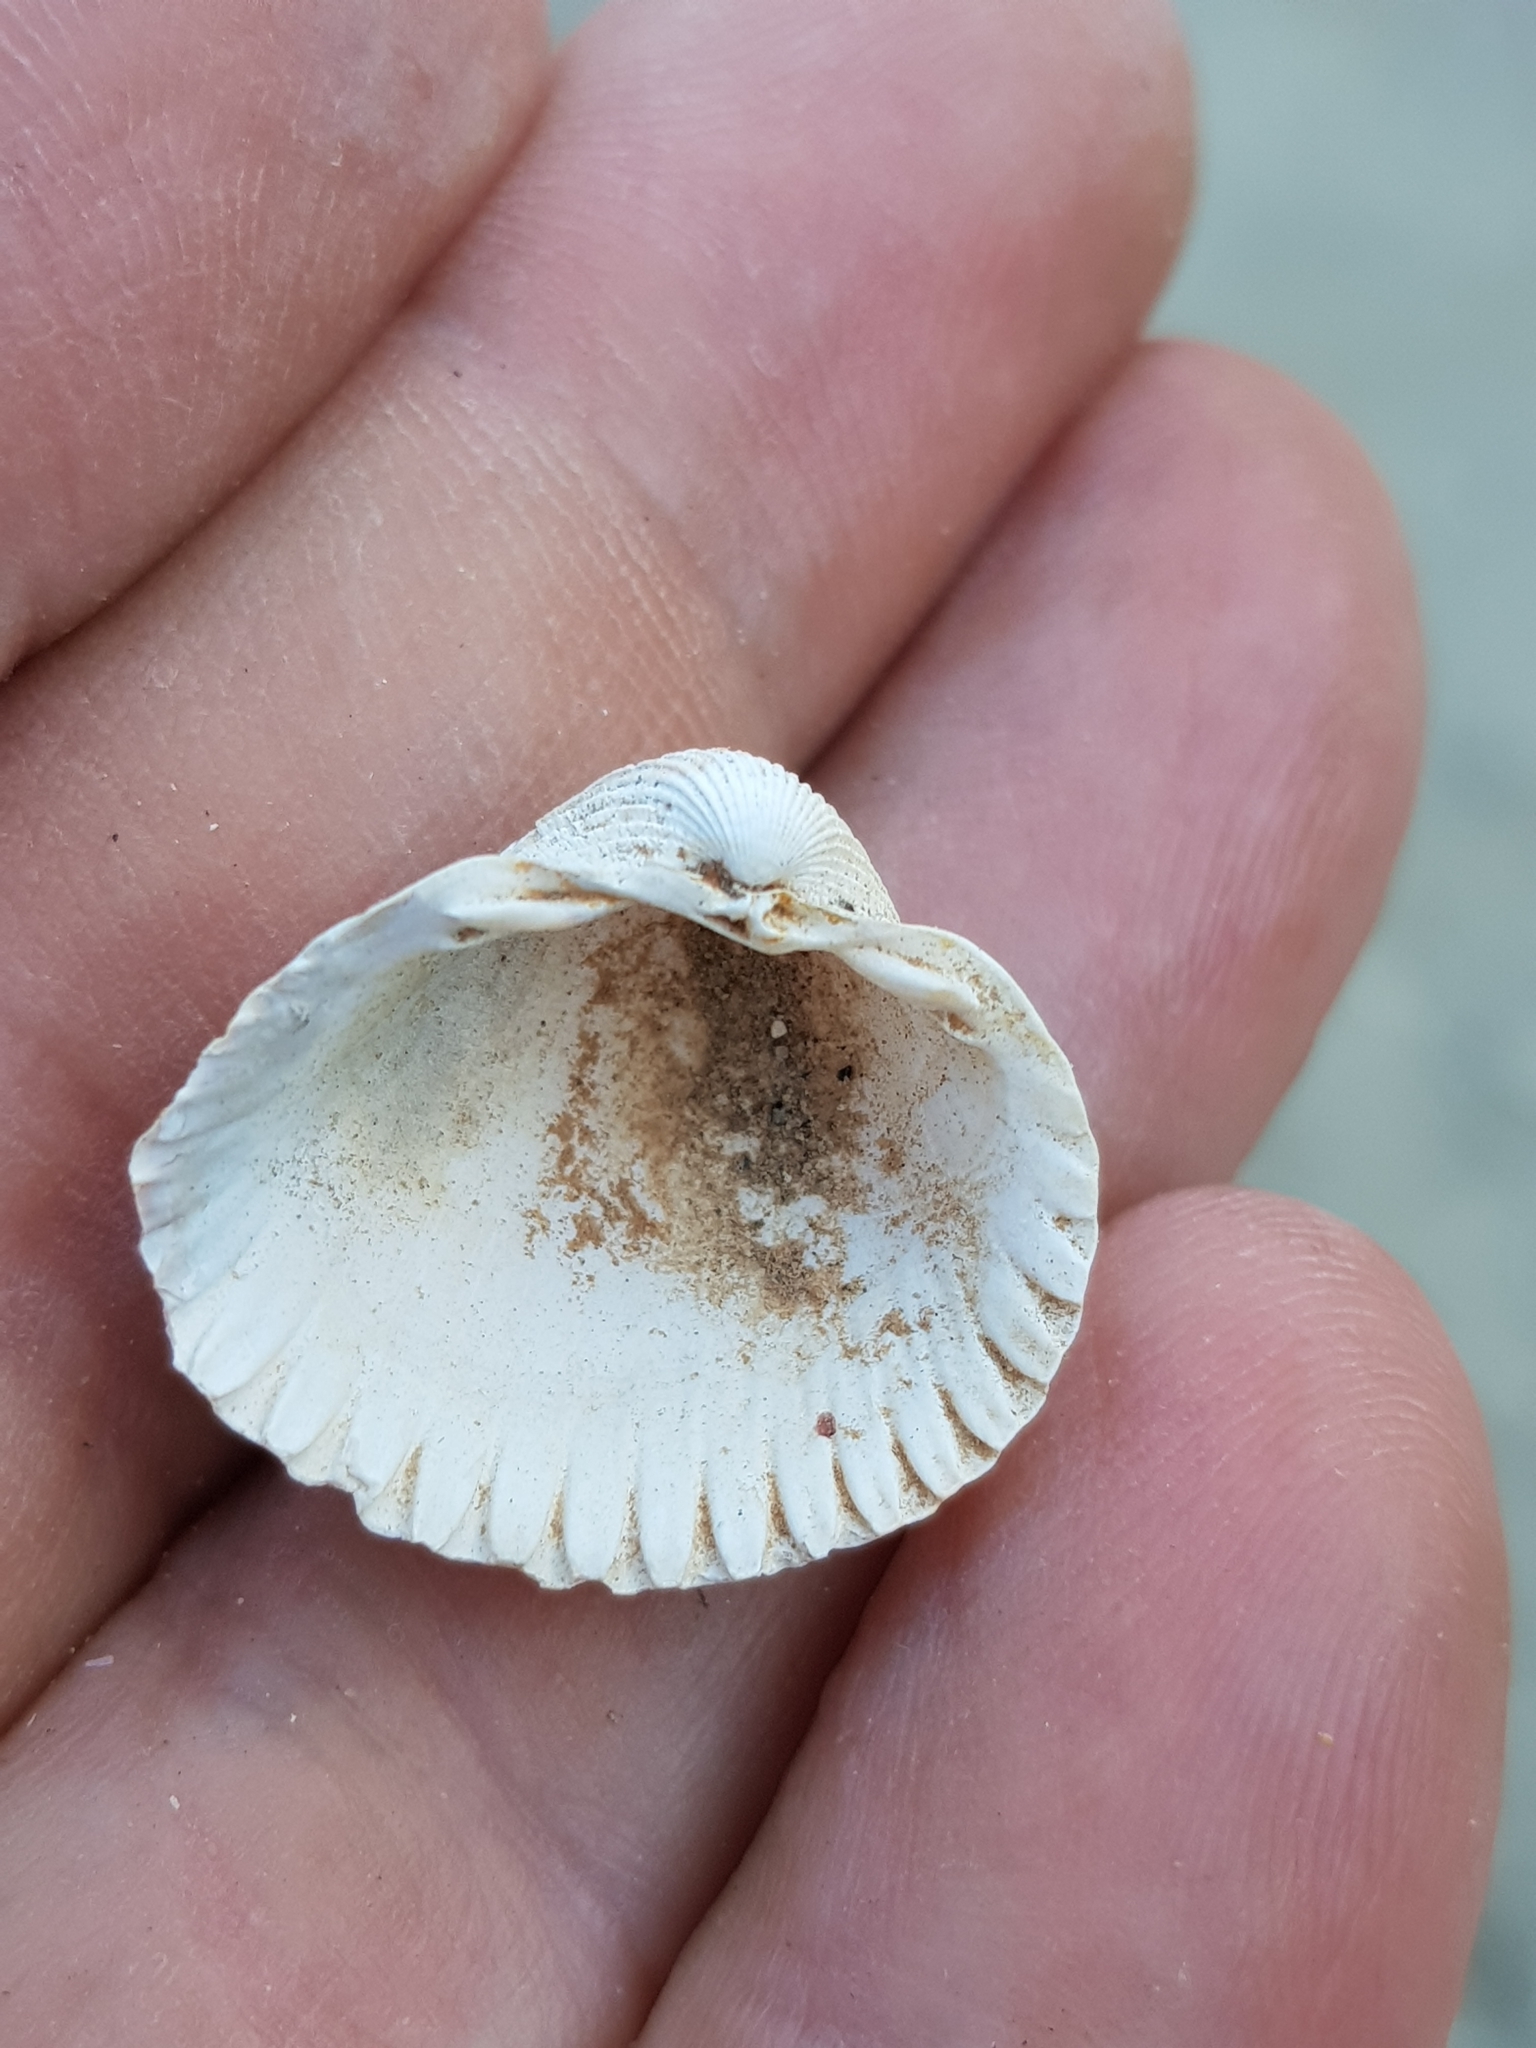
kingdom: Animalia
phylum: Mollusca
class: Bivalvia
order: Cardiida
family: Cardiidae
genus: Cerastoderma
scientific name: Cerastoderma glaucum
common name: Lagoon cockle
